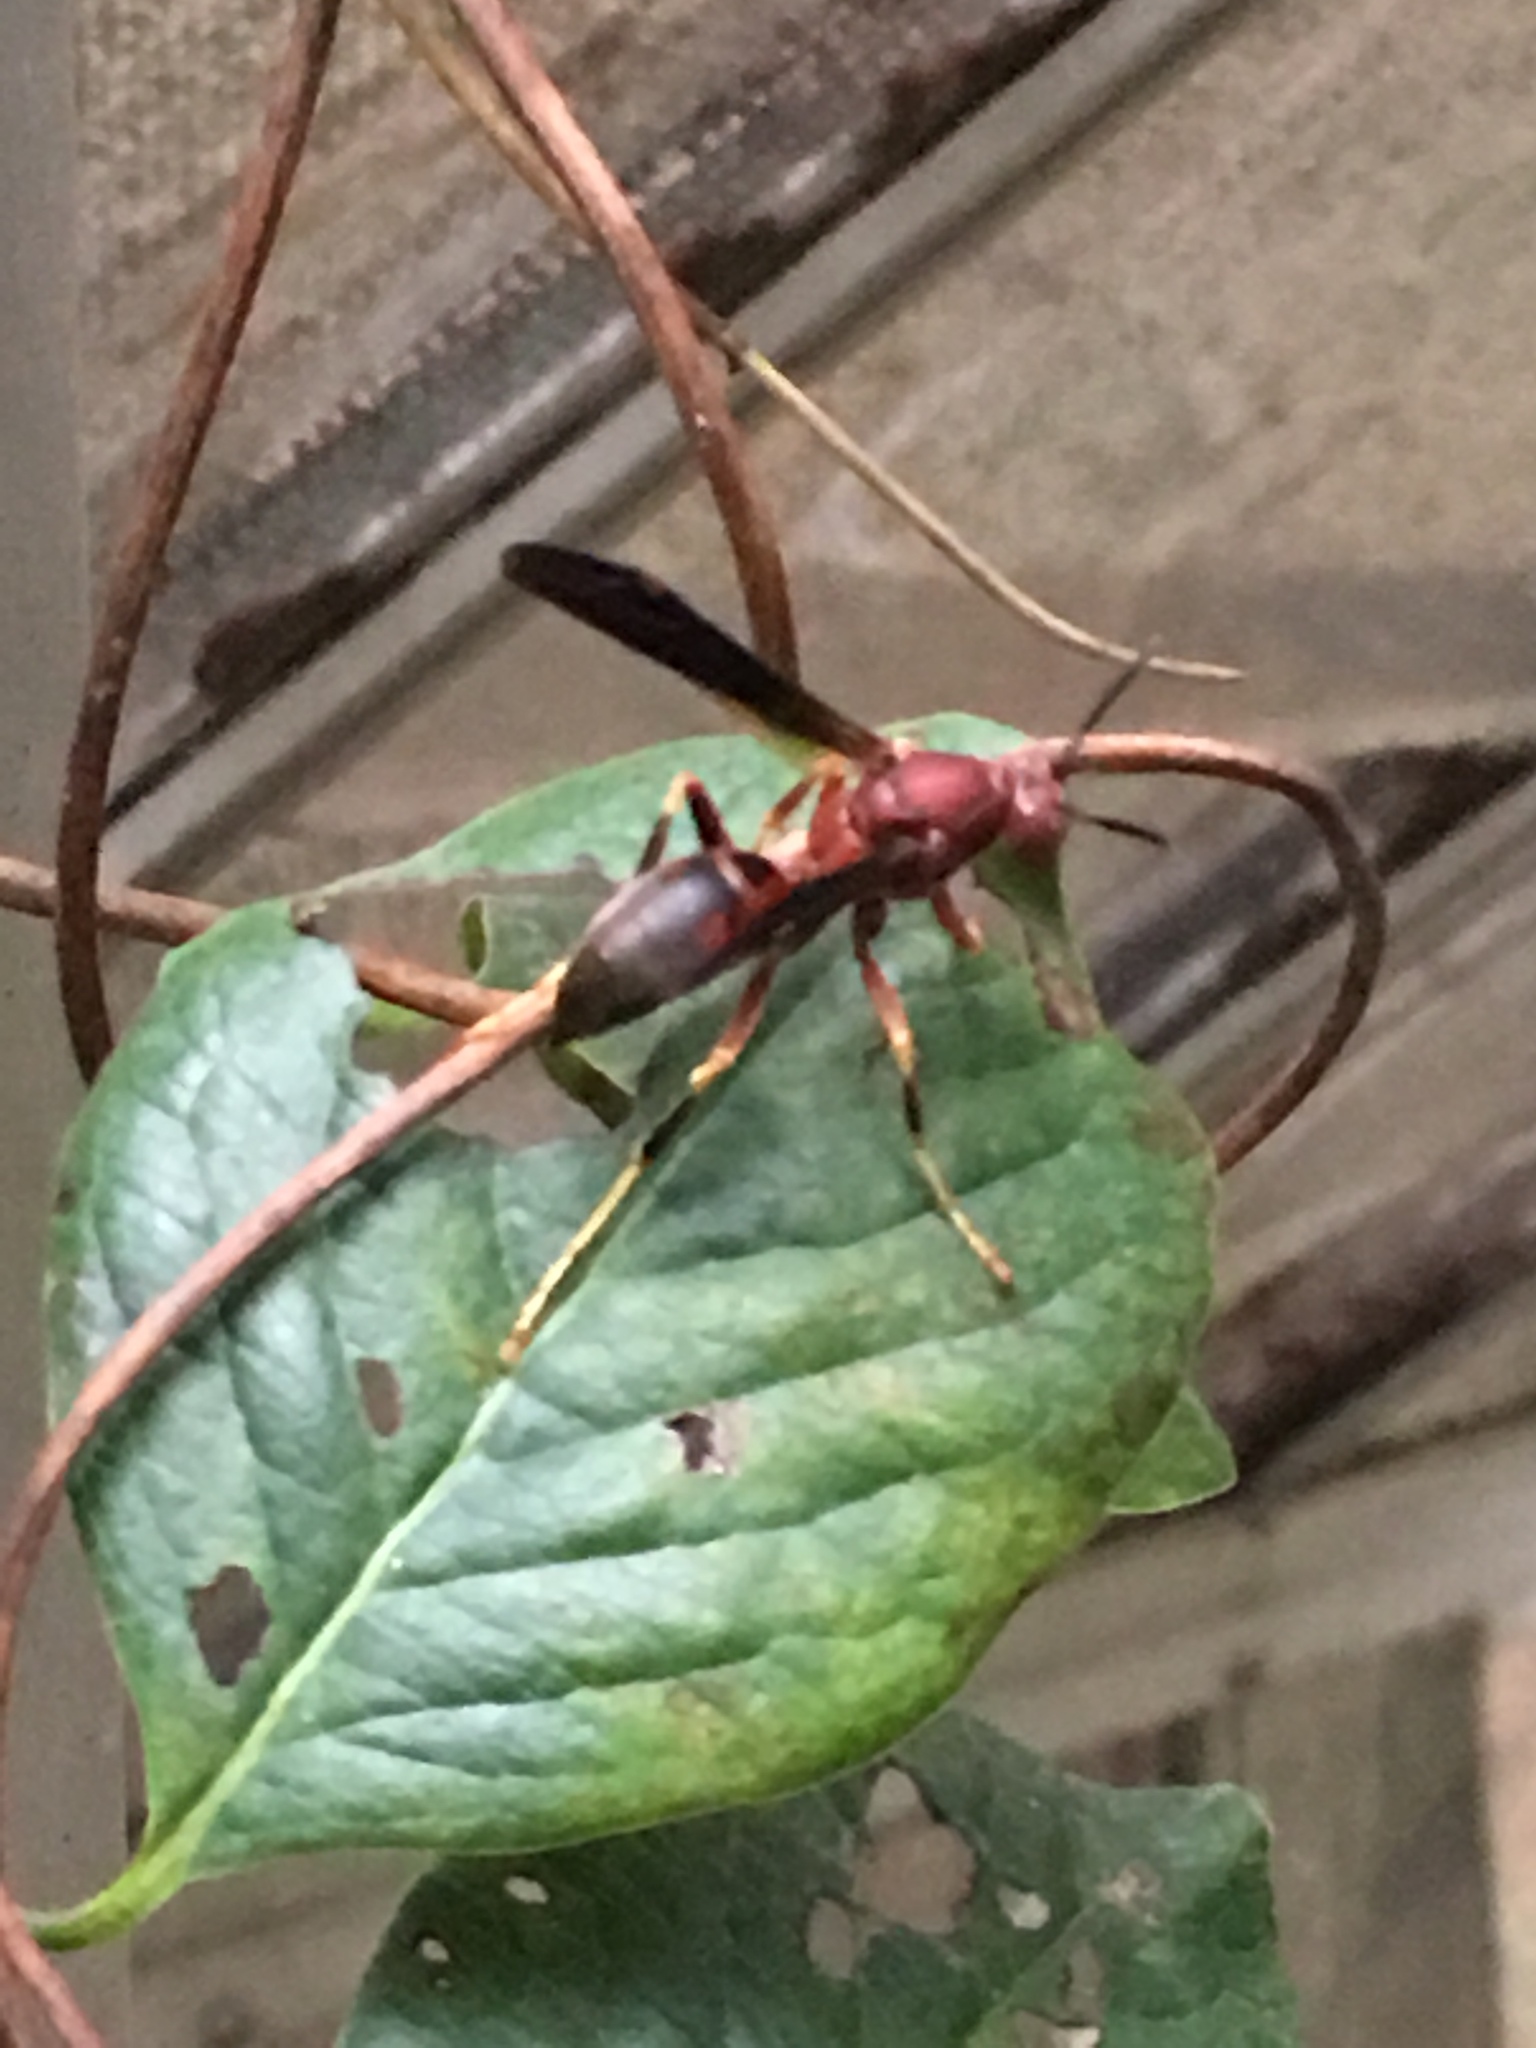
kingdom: Animalia
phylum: Arthropoda
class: Insecta
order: Hymenoptera
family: Eumenidae
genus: Polistes
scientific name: Polistes metricus
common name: Metric paper wasp
